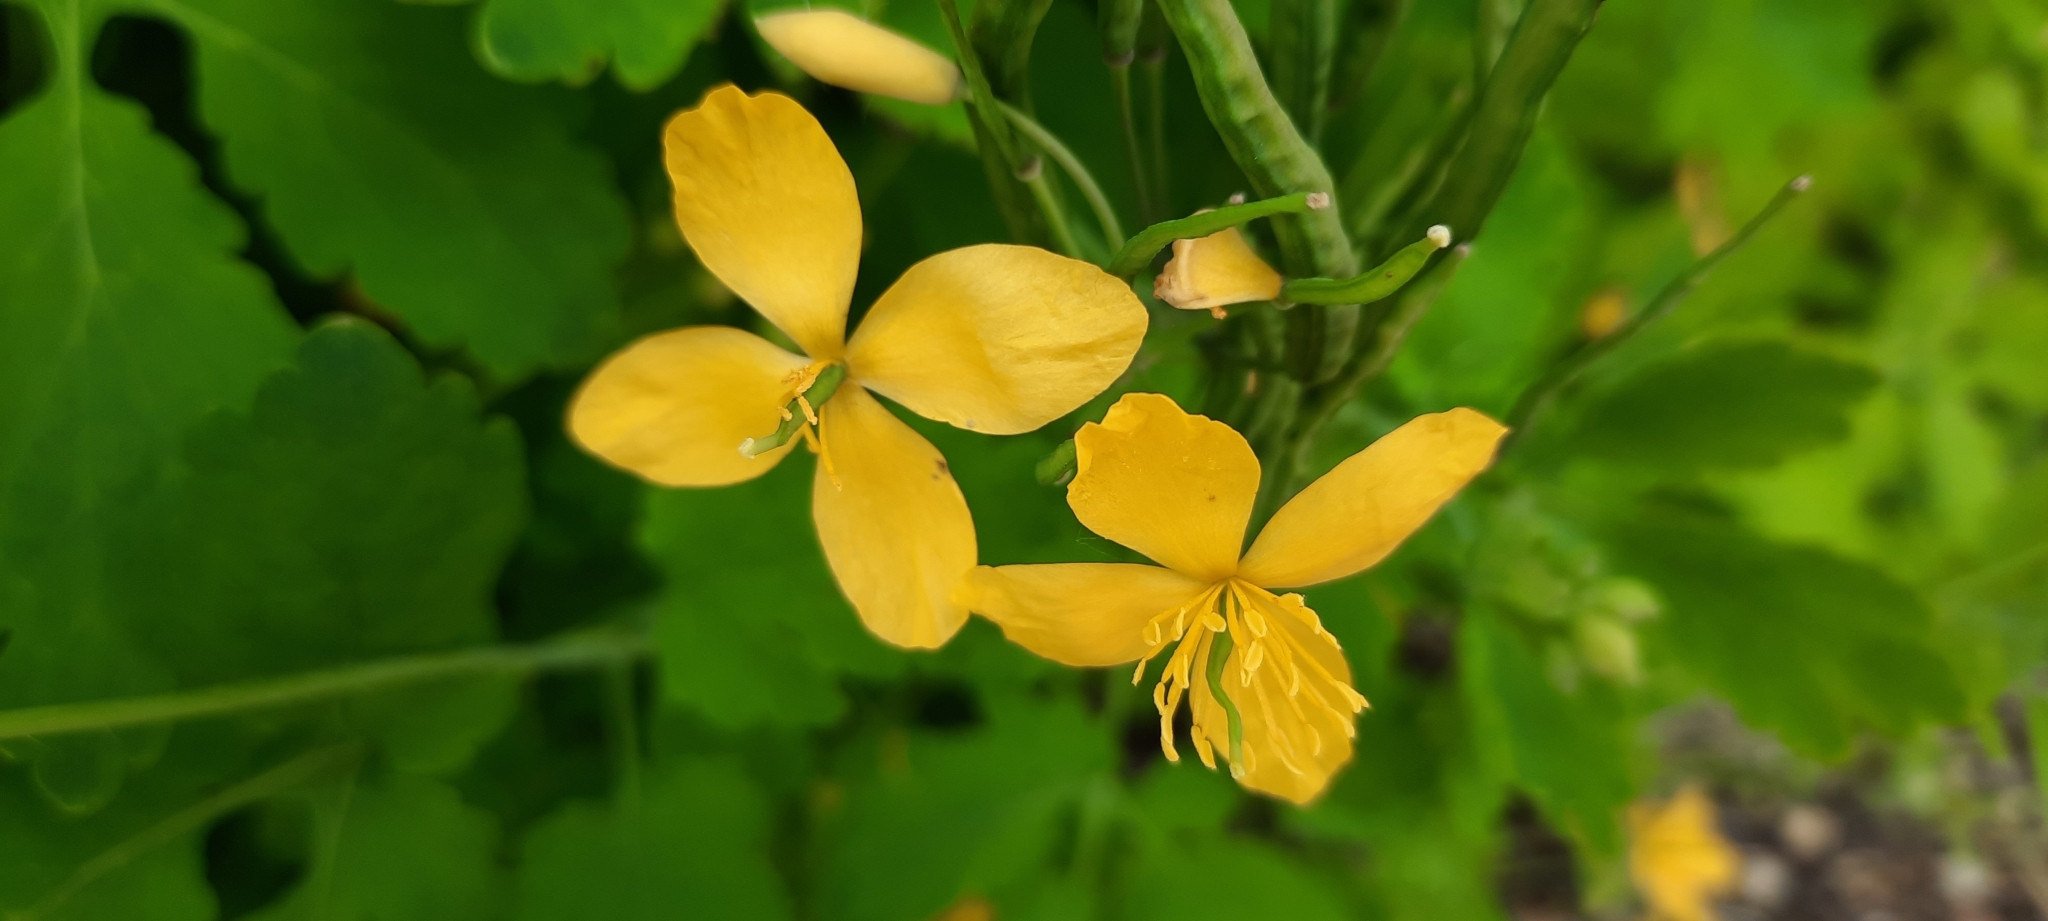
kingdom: Plantae
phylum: Tracheophyta
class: Magnoliopsida
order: Ranunculales
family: Papaveraceae
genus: Chelidonium
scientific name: Chelidonium majus
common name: Greater celandine
